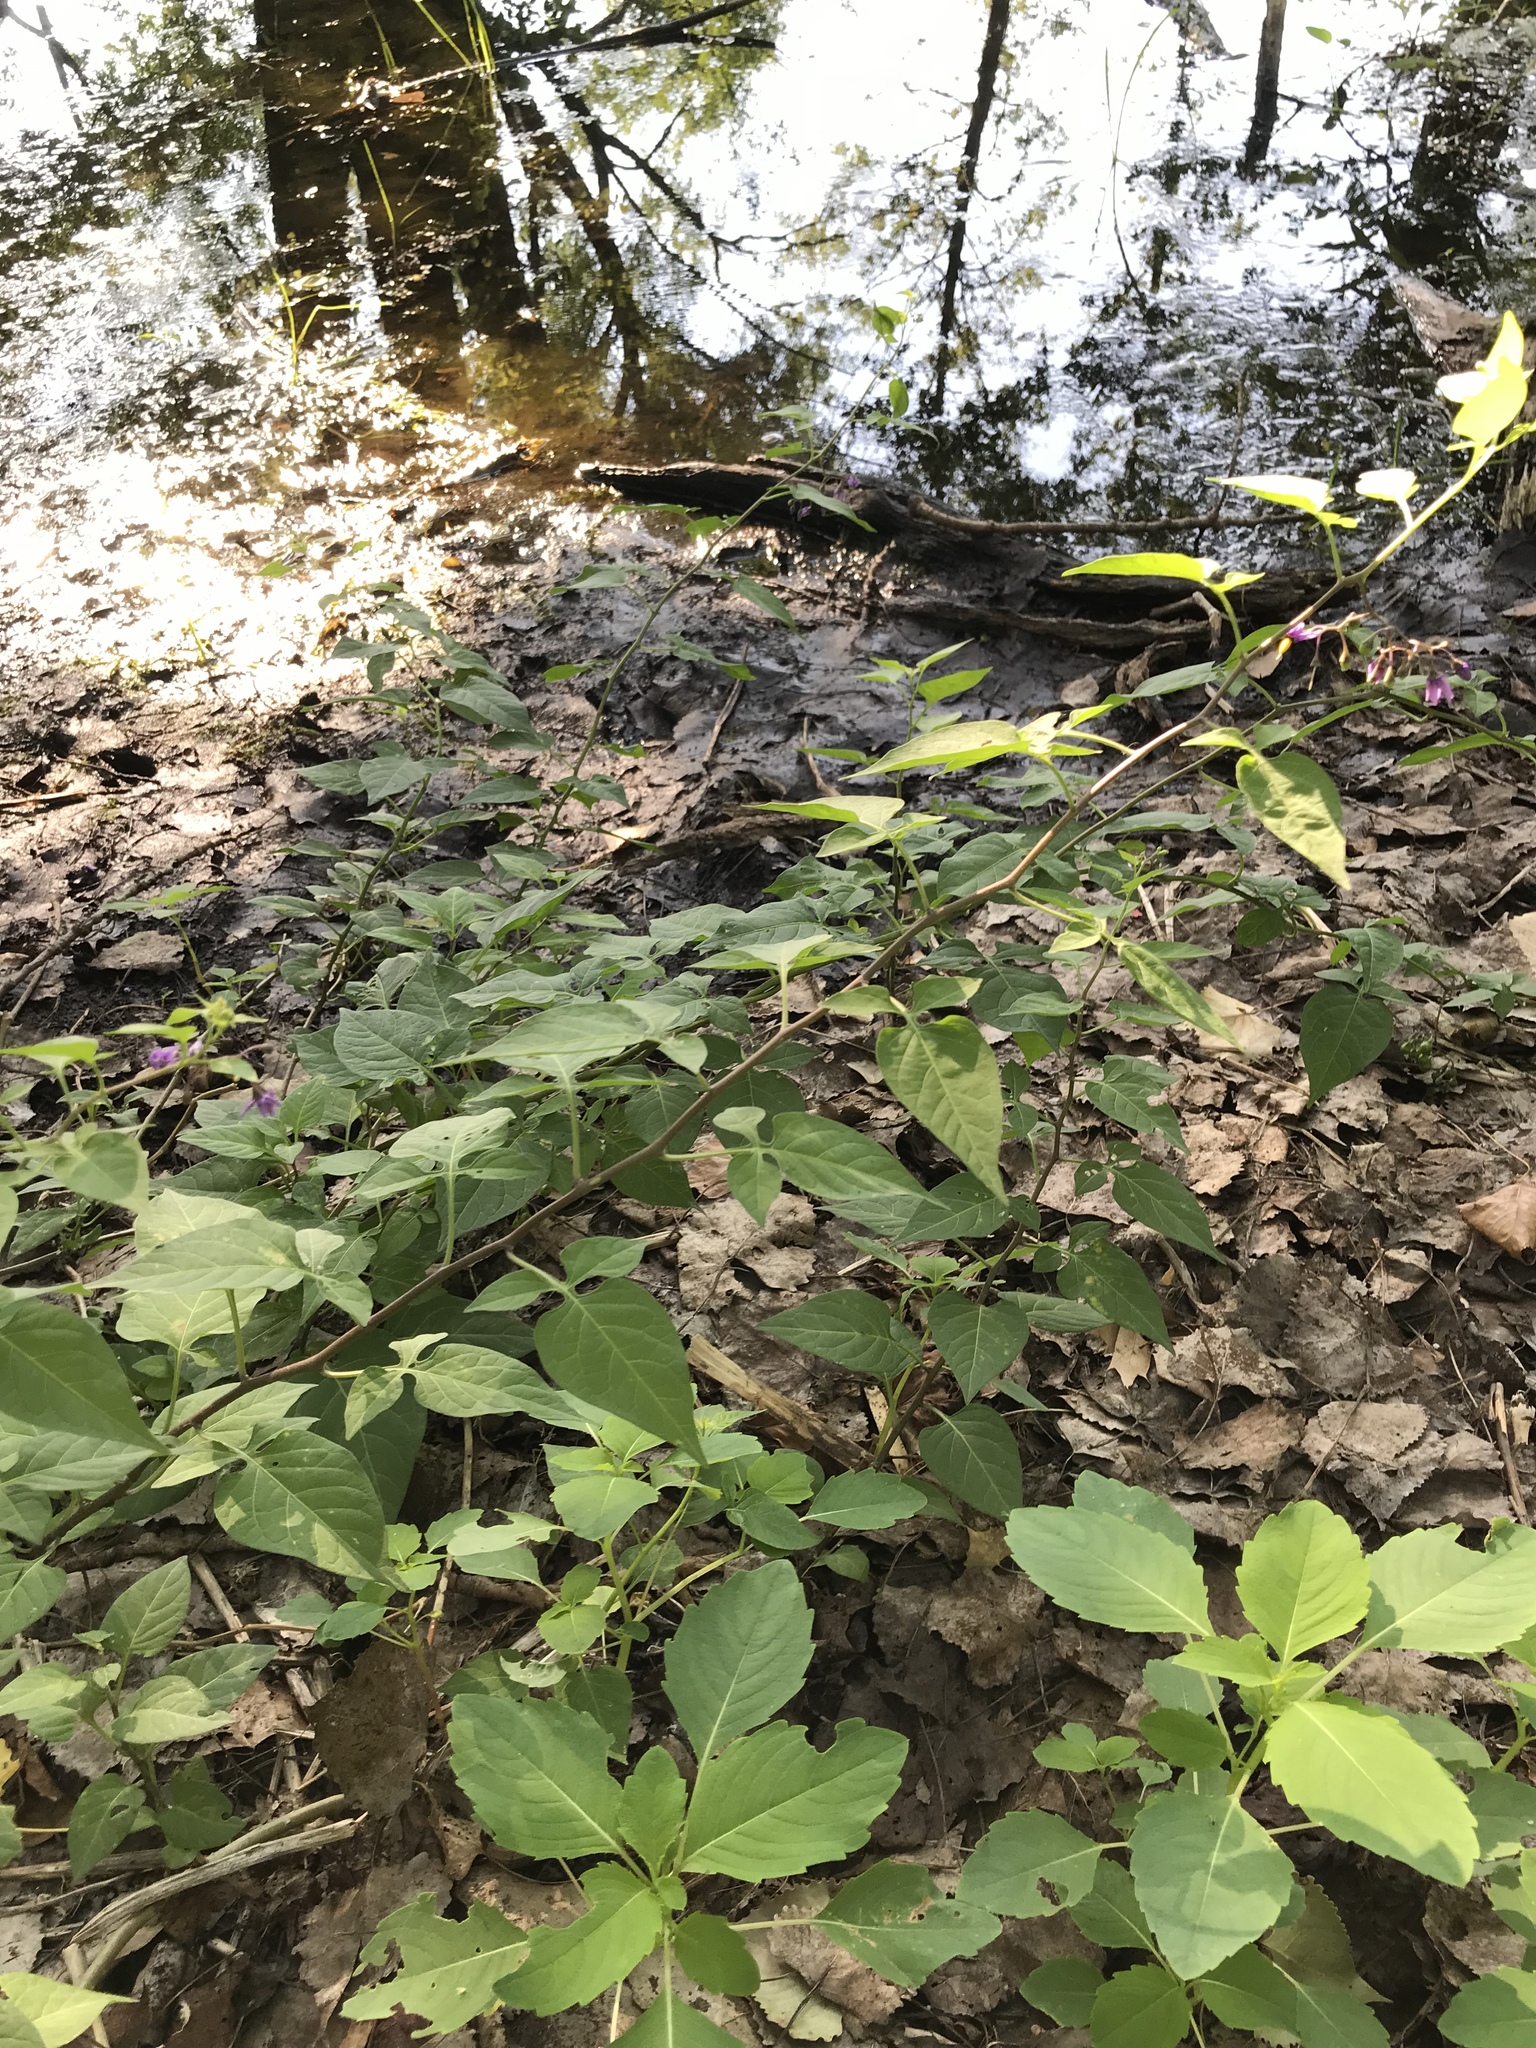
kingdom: Plantae
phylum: Tracheophyta
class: Magnoliopsida
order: Solanales
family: Solanaceae
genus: Solanum
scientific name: Solanum dulcamara
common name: Climbing nightshade
